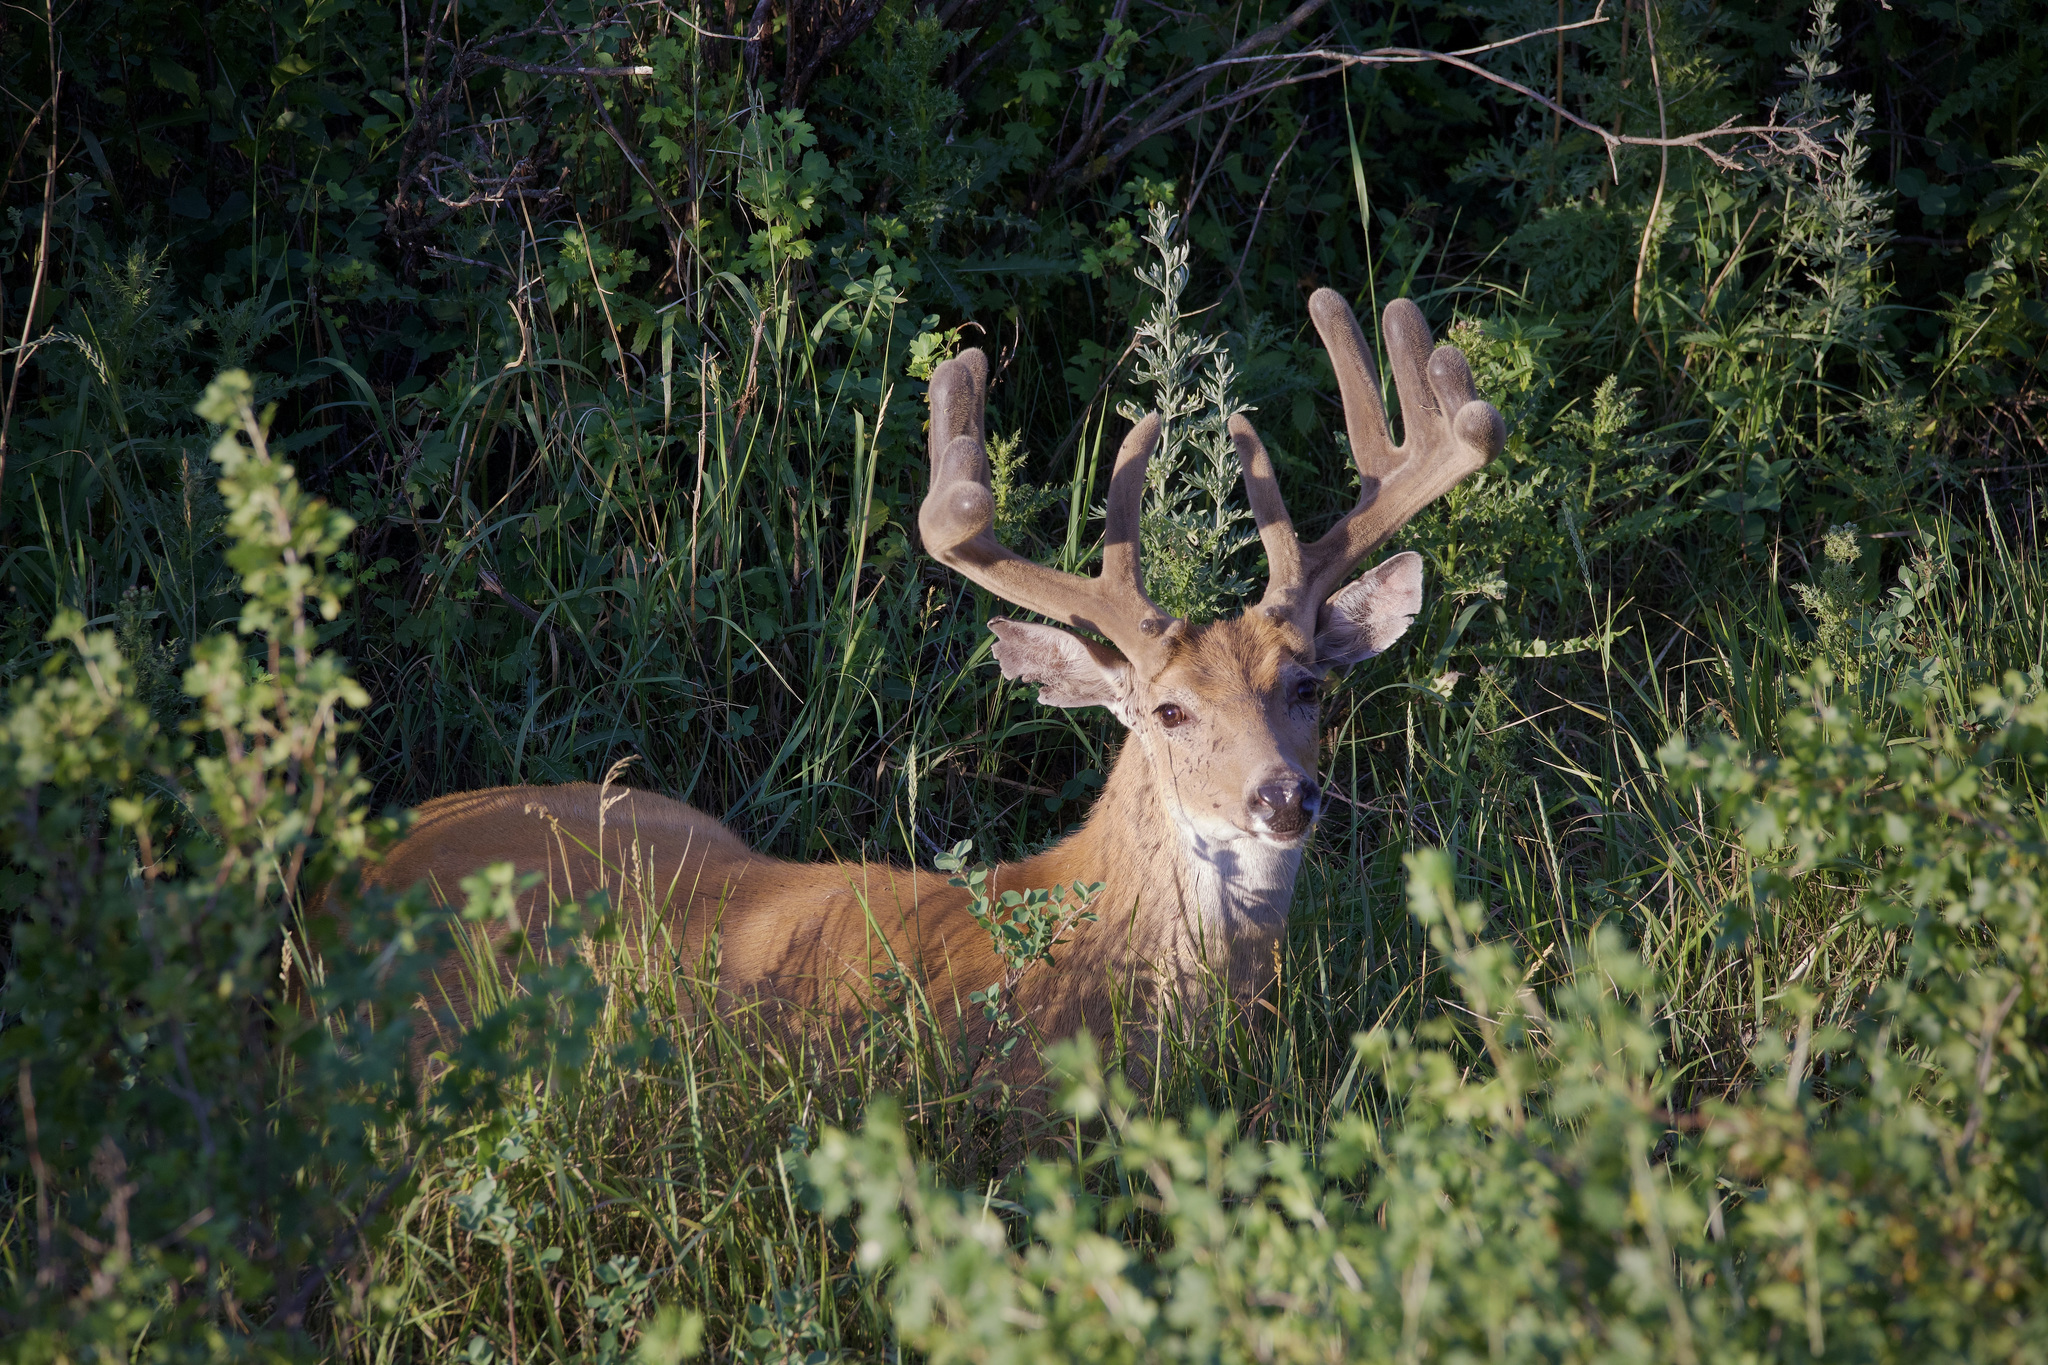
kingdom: Animalia
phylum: Chordata
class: Mammalia
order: Artiodactyla
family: Cervidae
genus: Odocoileus
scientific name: Odocoileus virginianus
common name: White-tailed deer
